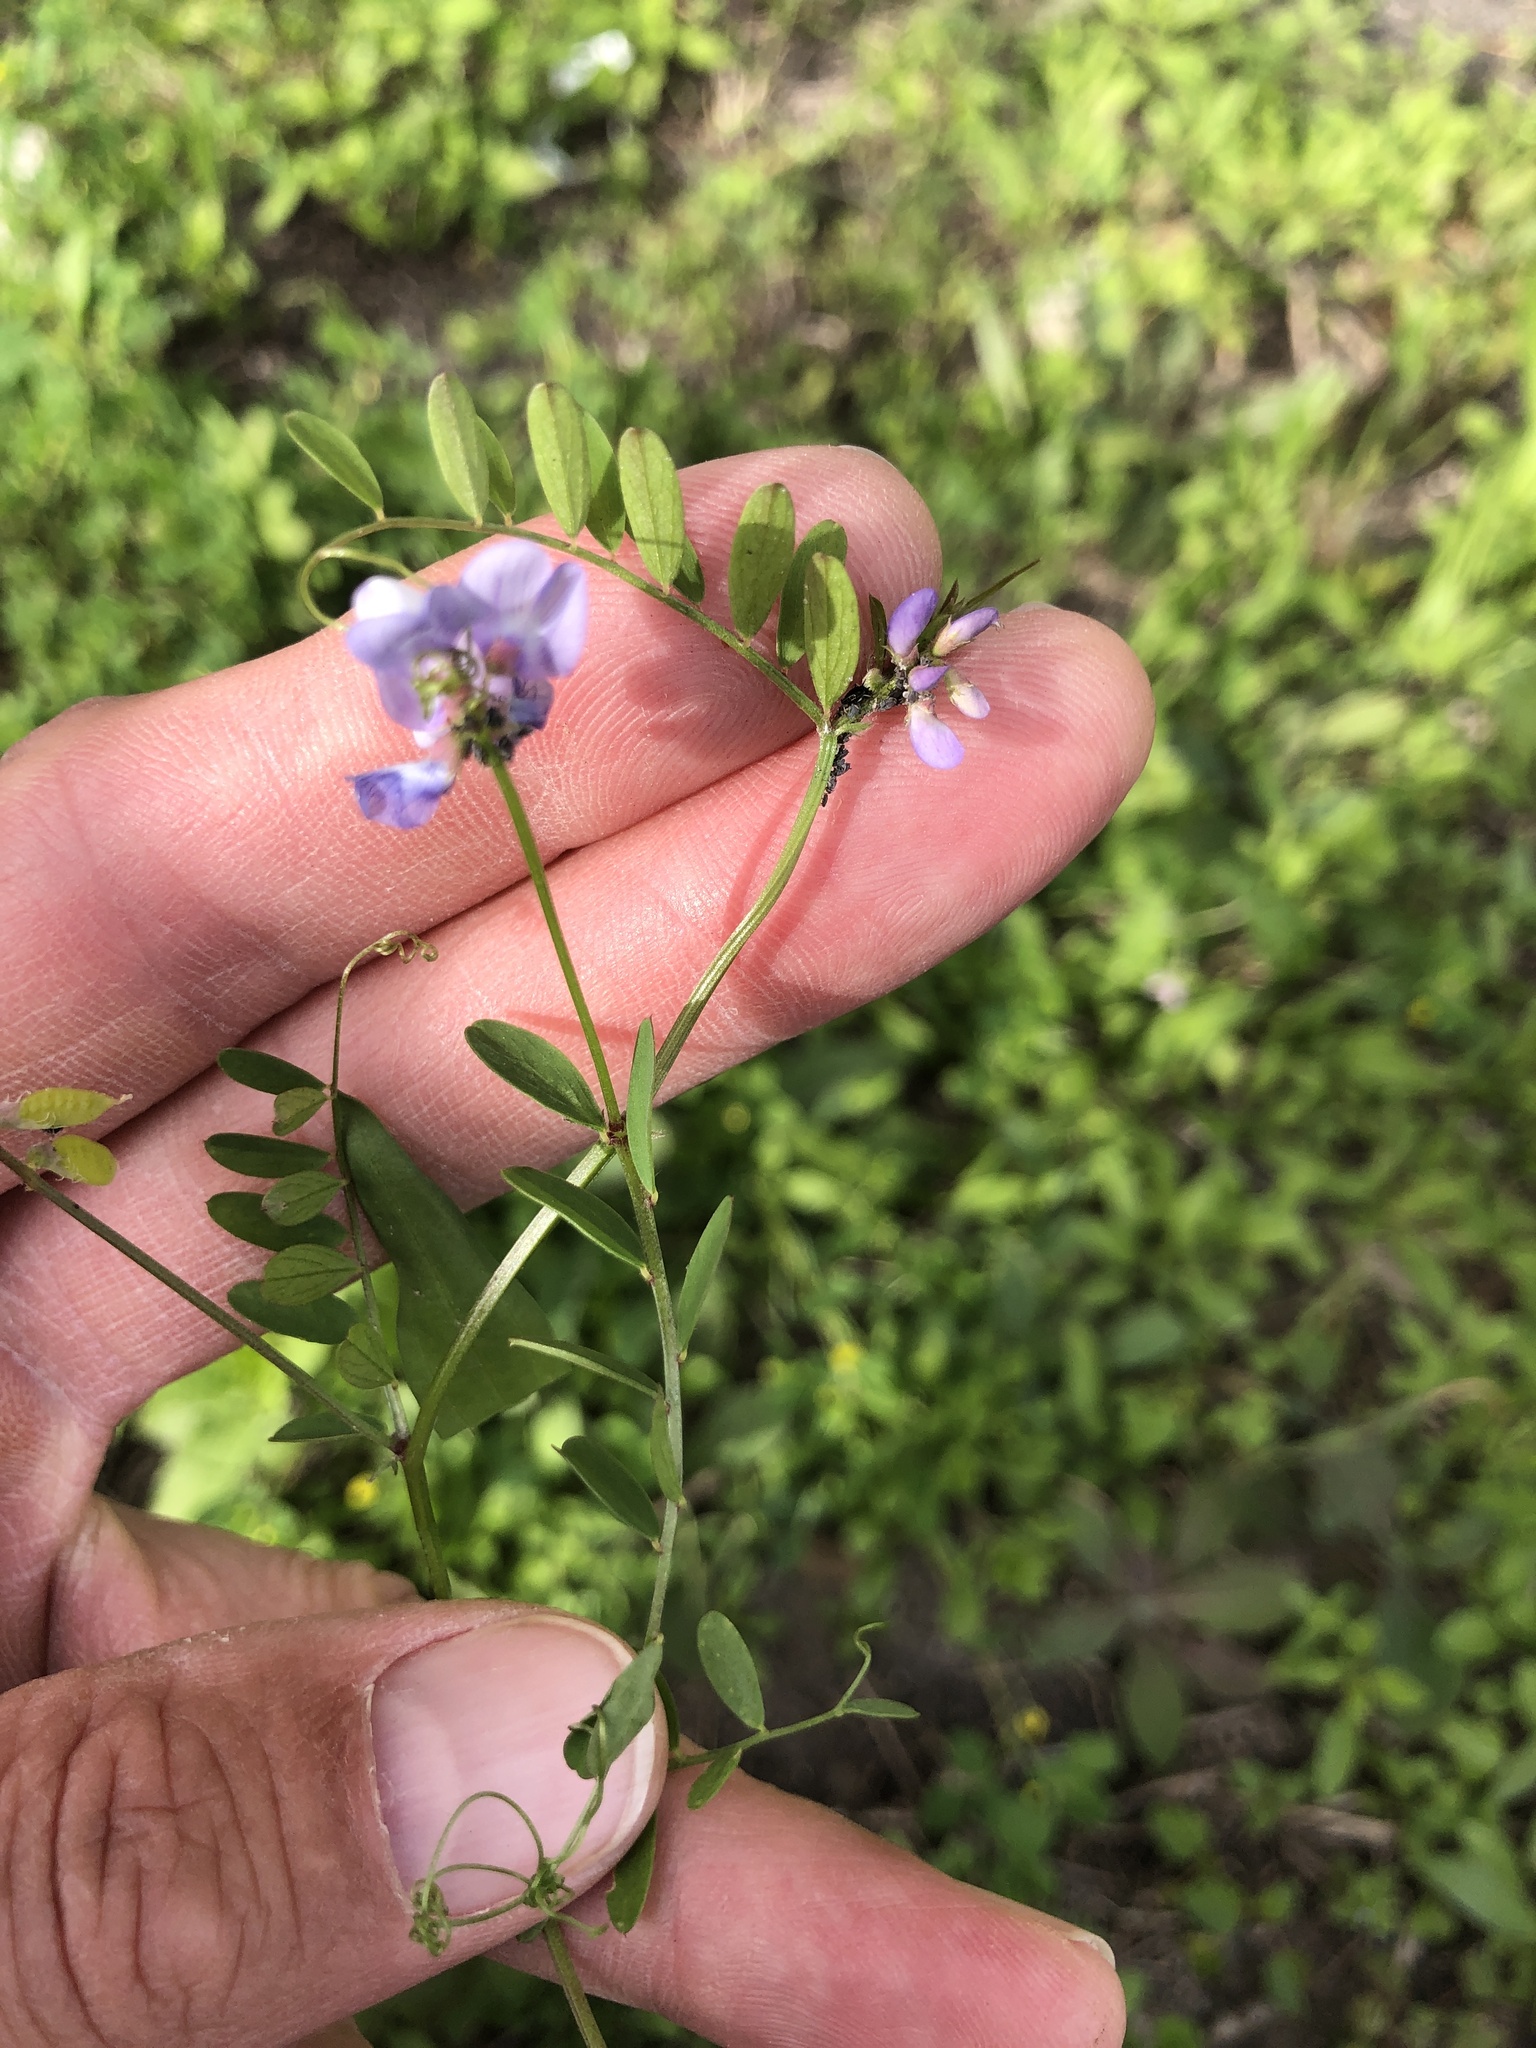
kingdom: Plantae
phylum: Tracheophyta
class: Magnoliopsida
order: Fabales
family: Fabaceae
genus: Vicia
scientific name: Vicia ludoviciana
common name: Louisiana vetch
